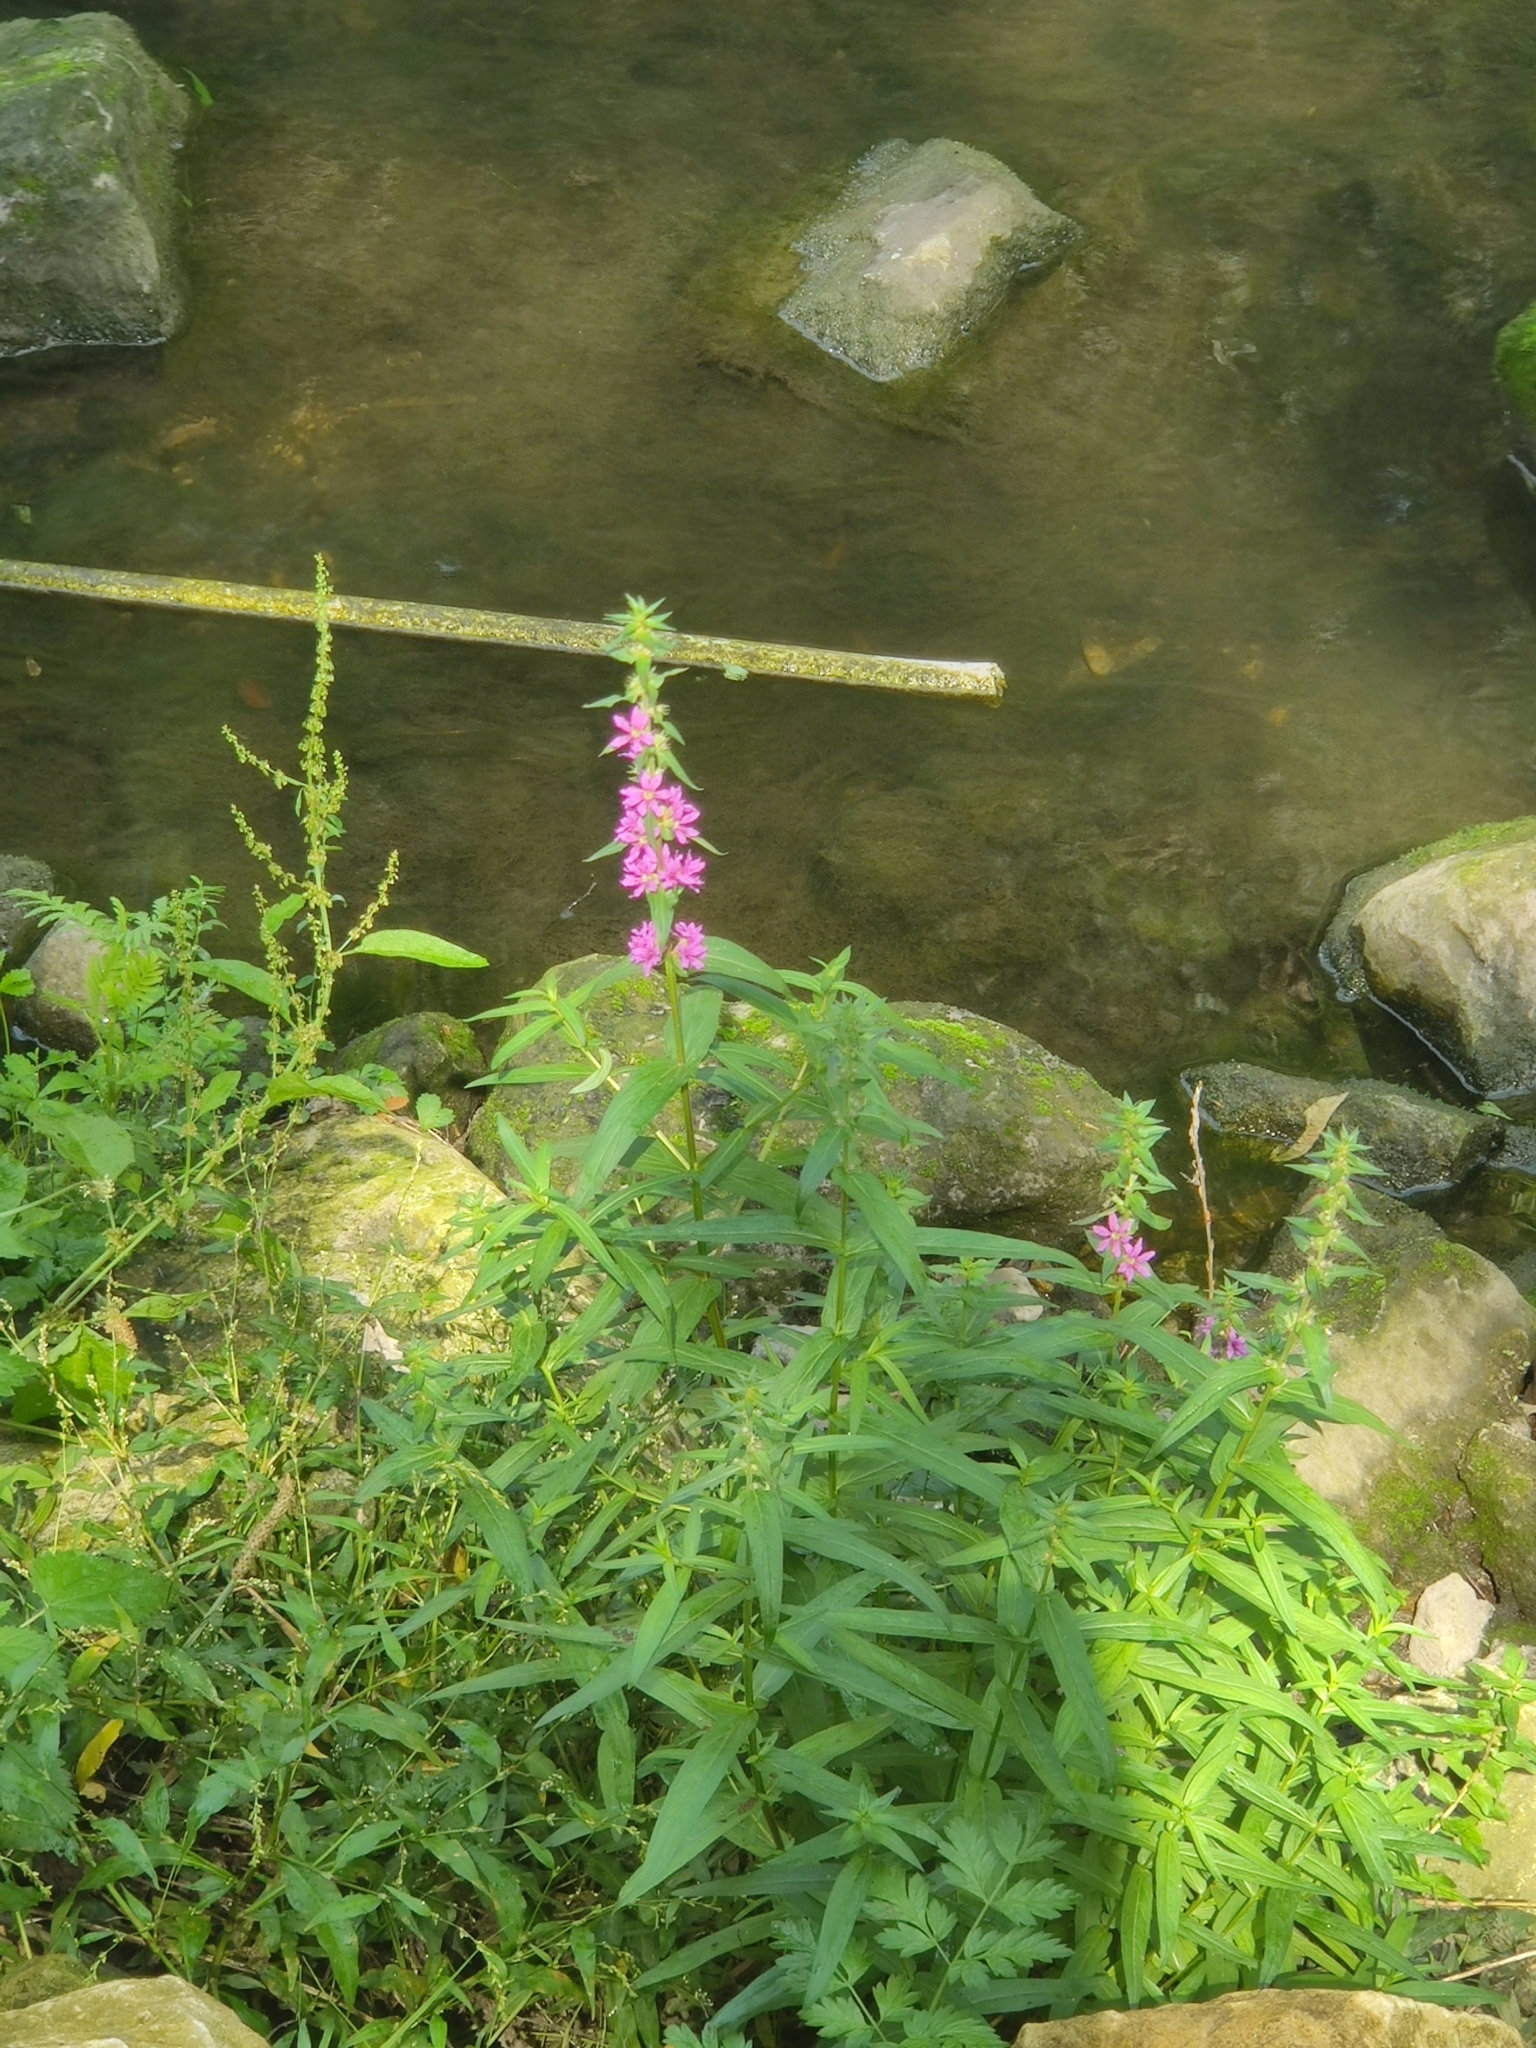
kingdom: Plantae
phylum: Tracheophyta
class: Magnoliopsida
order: Myrtales
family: Lythraceae
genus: Lythrum
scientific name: Lythrum salicaria
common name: Purple loosestrife
